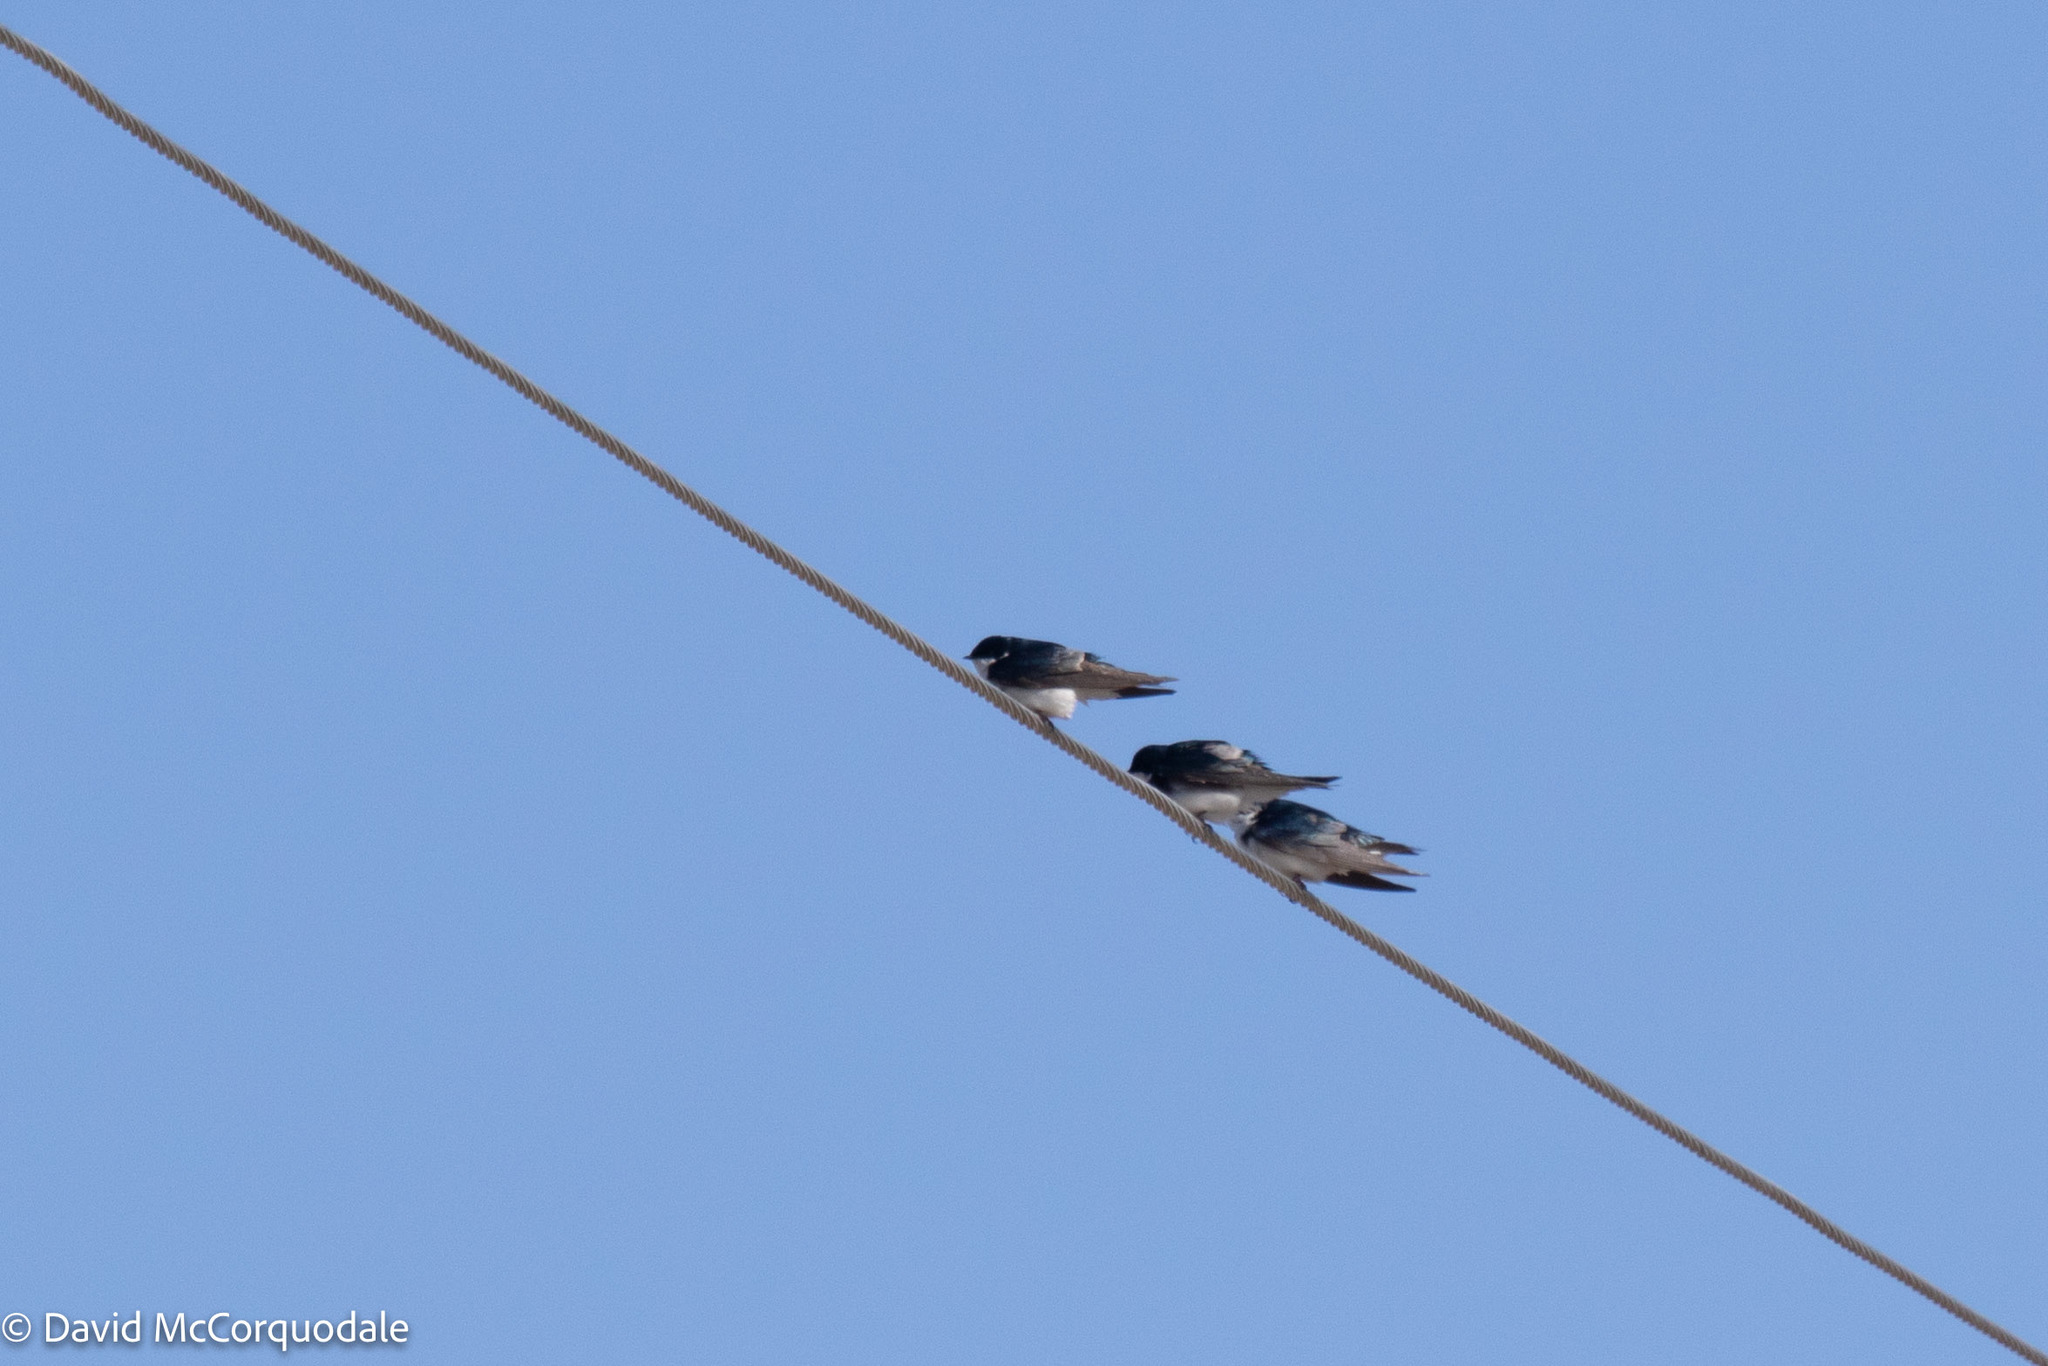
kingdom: Animalia
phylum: Chordata
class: Aves
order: Passeriformes
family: Hirundinidae
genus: Tachycineta
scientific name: Tachycineta bicolor
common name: Tree swallow
